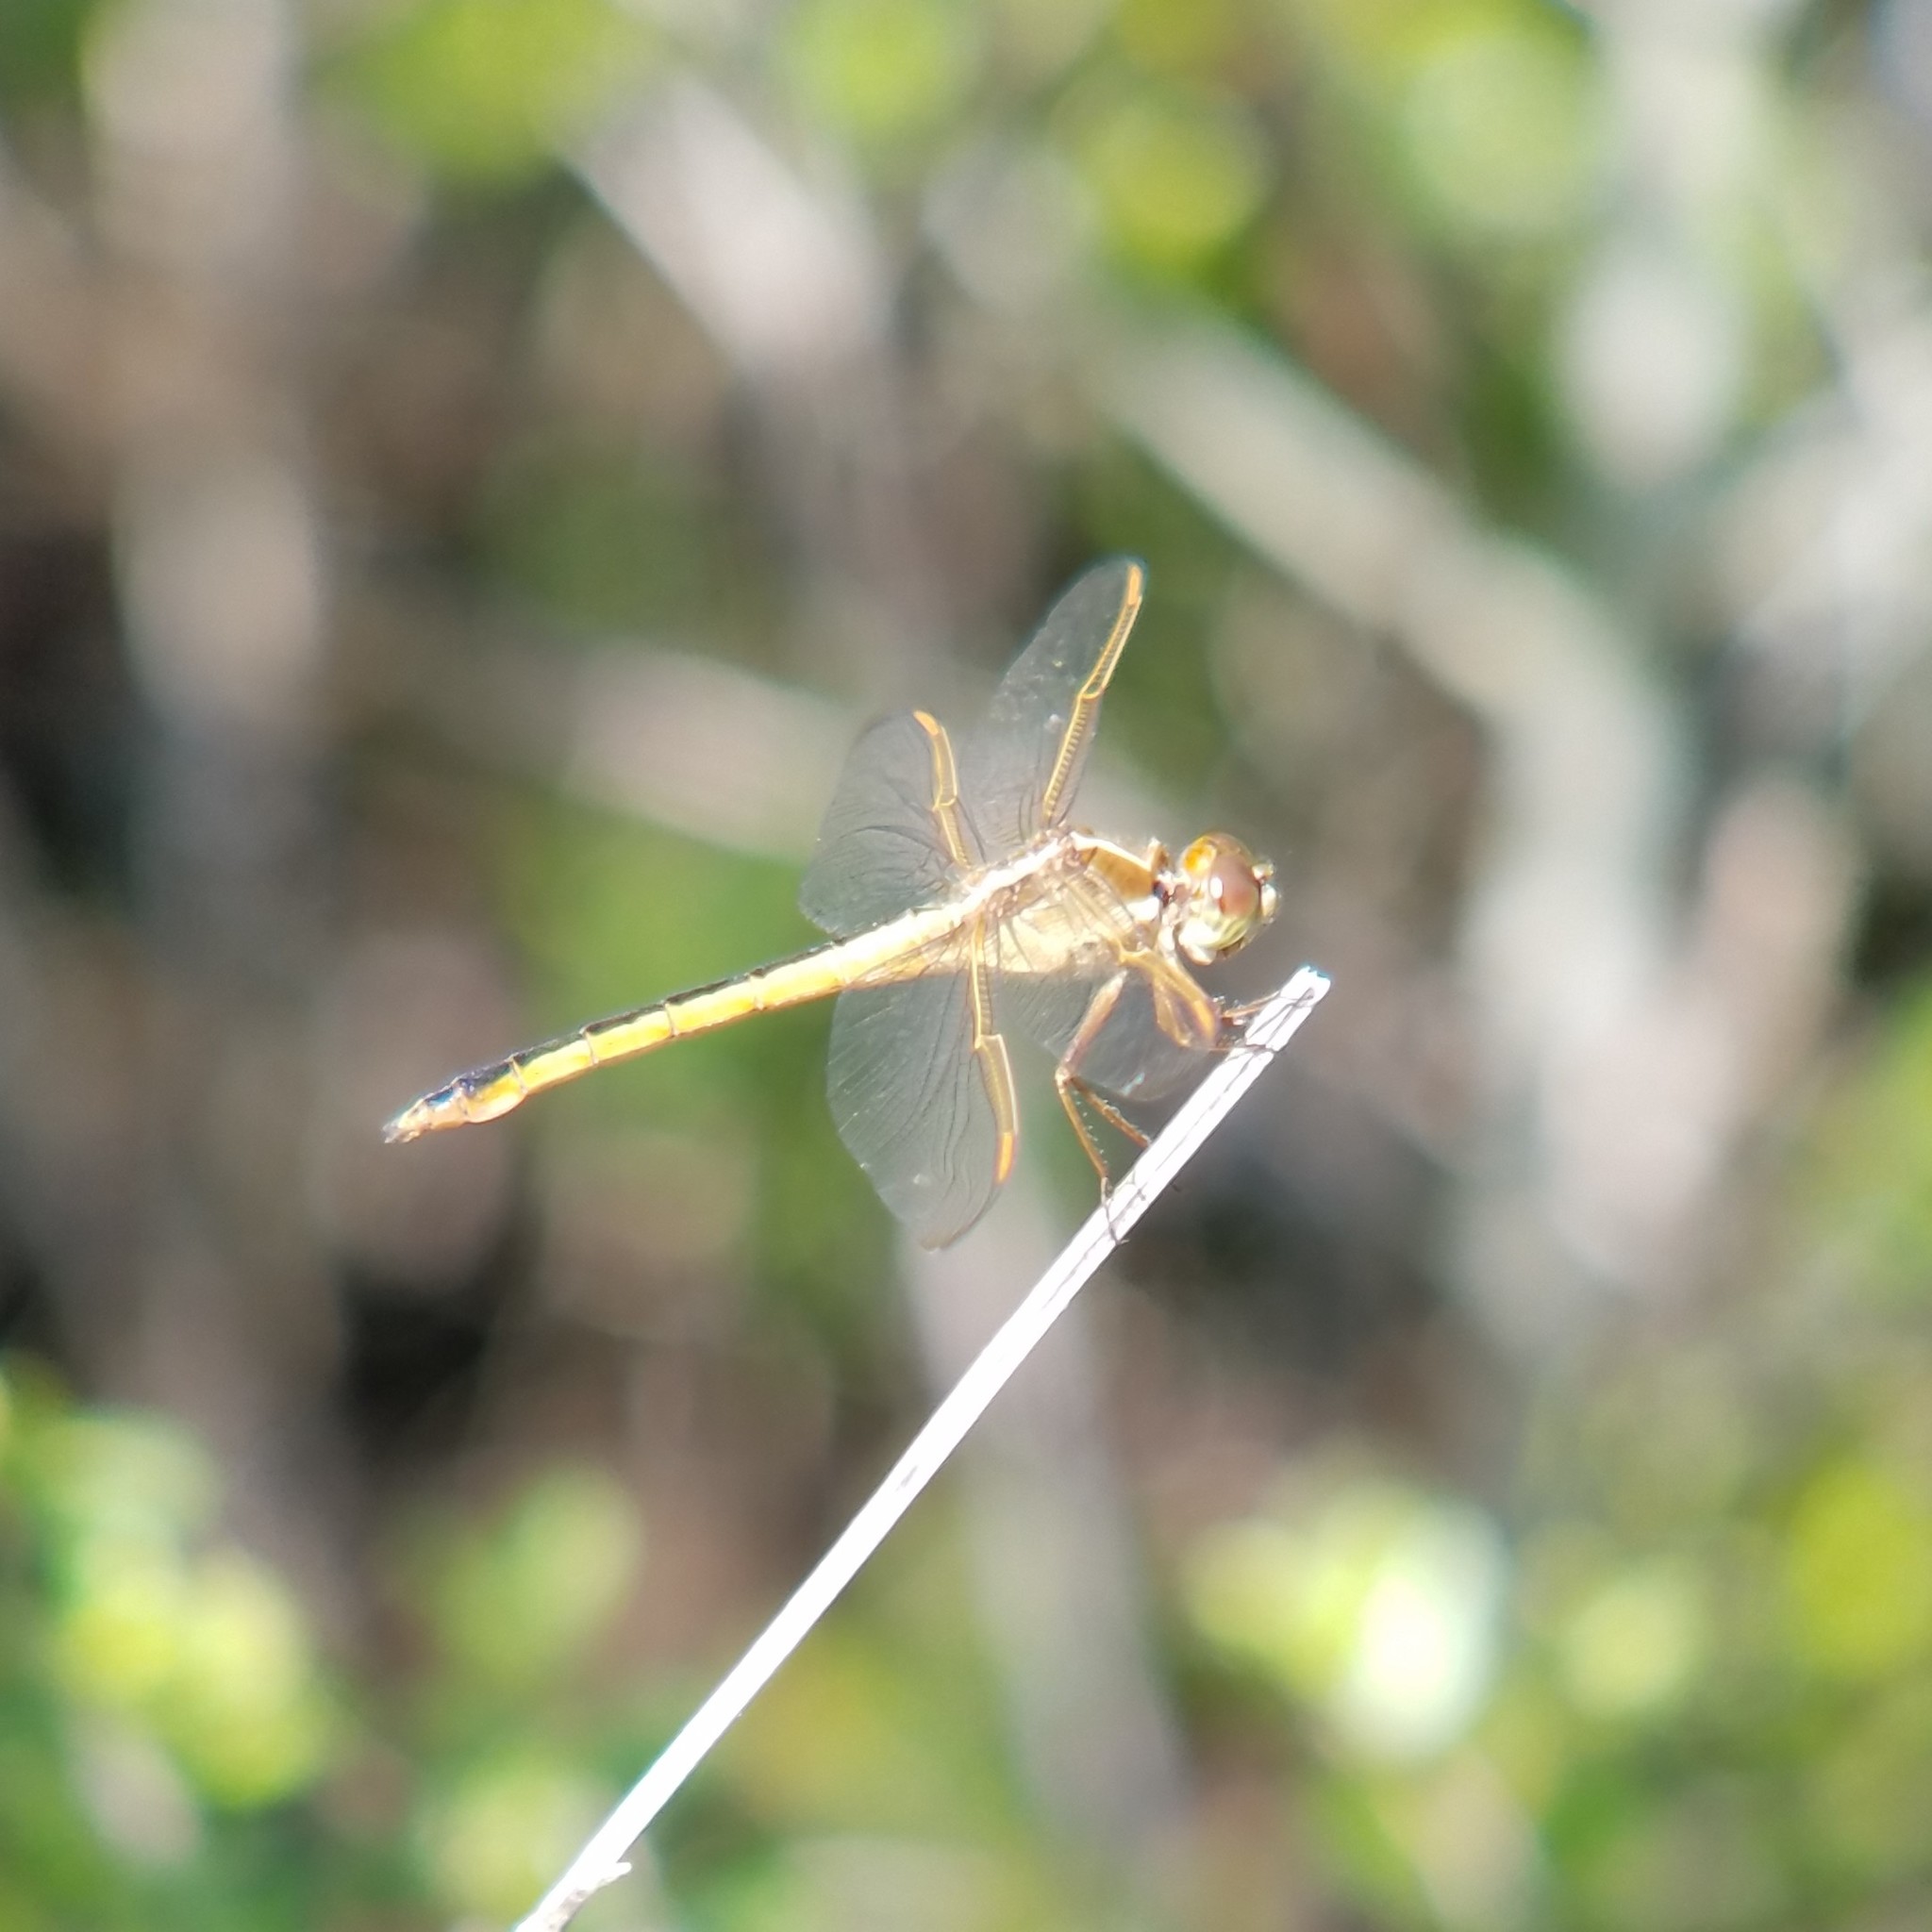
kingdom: Animalia
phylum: Arthropoda
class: Insecta
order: Odonata
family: Libellulidae
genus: Libellula
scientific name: Libellula needhami
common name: Needham's skimmer
